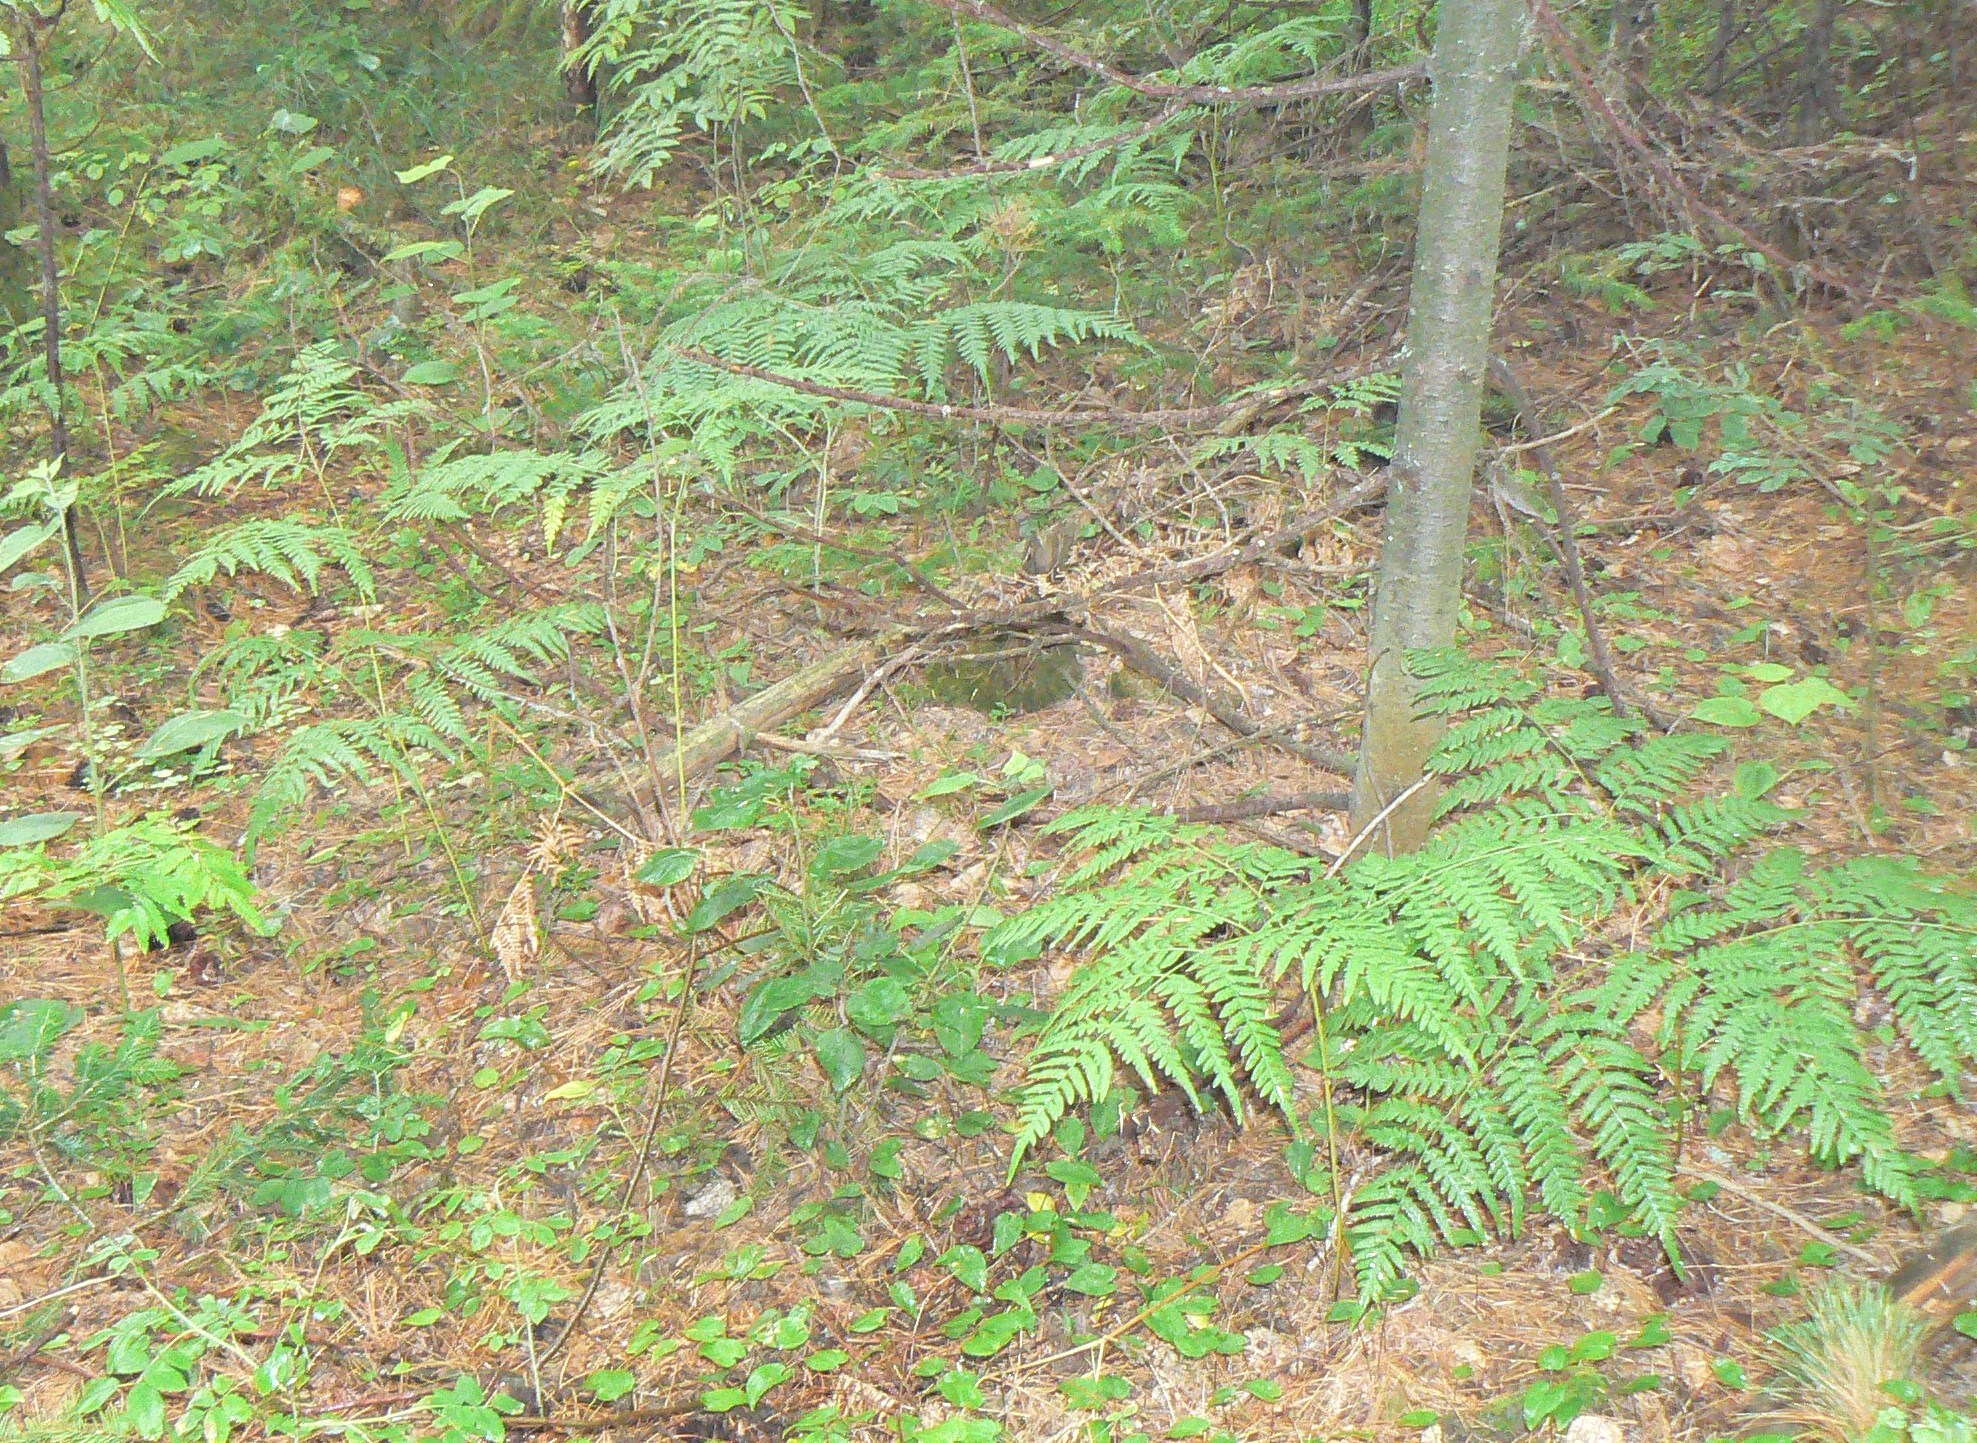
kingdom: Plantae
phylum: Tracheophyta
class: Polypodiopsida
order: Polypodiales
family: Dennstaedtiaceae
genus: Pteridium
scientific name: Pteridium aquilinum
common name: Bracken
